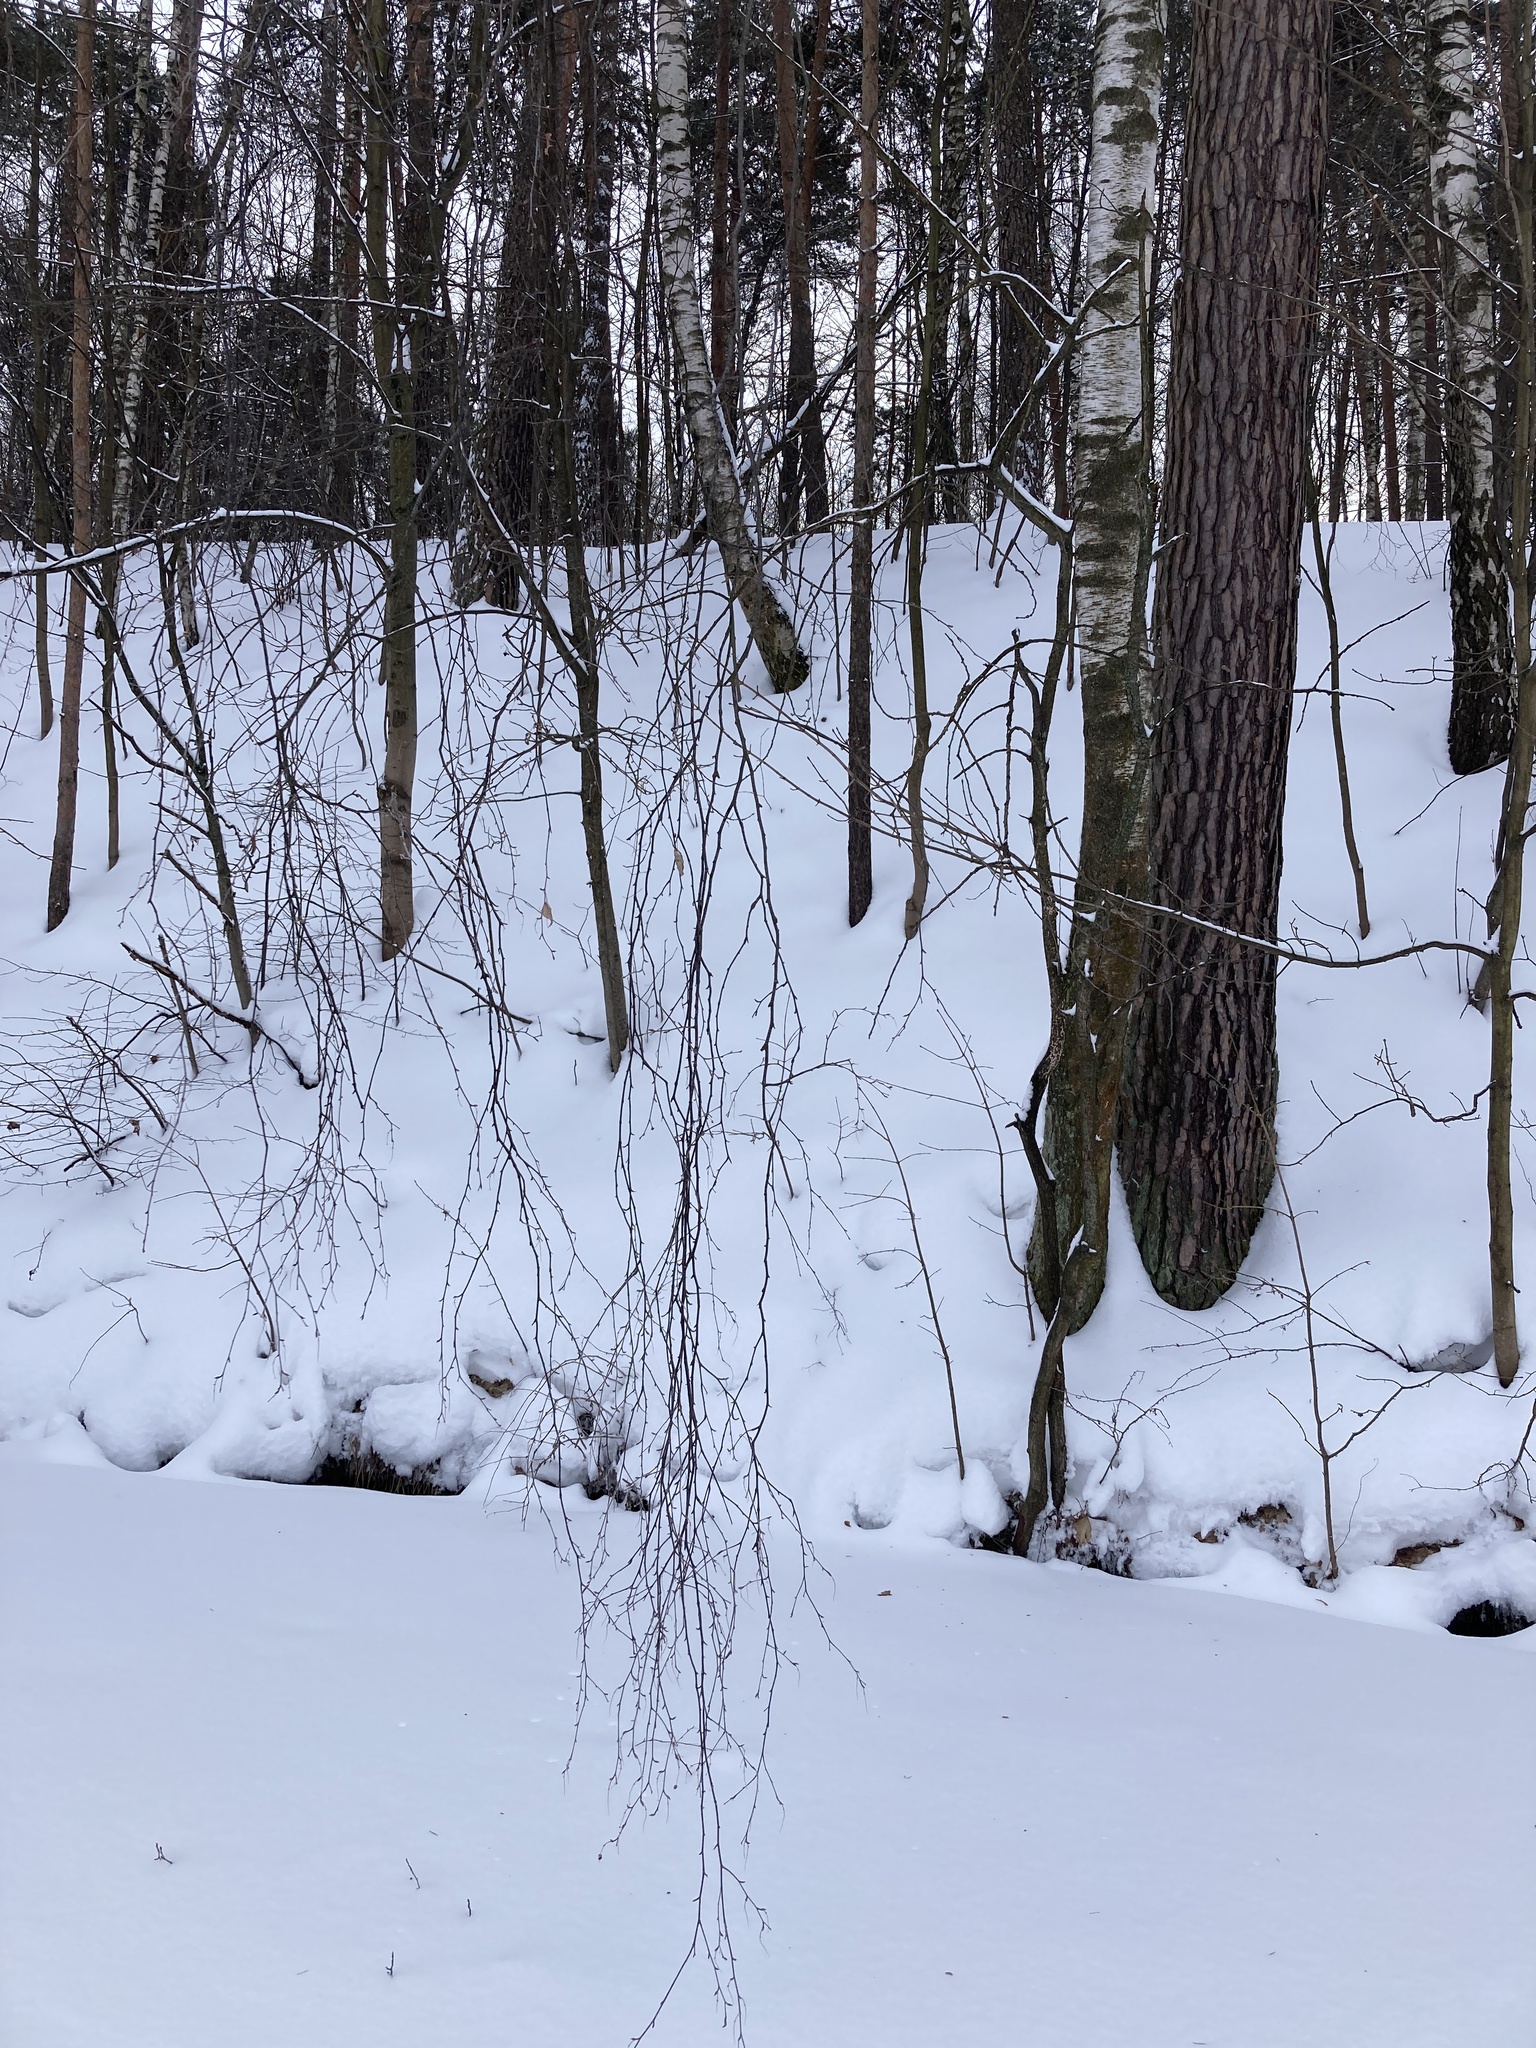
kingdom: Plantae
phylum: Tracheophyta
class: Magnoliopsida
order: Fagales
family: Betulaceae
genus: Betula
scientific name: Betula pendula
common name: Silver birch
